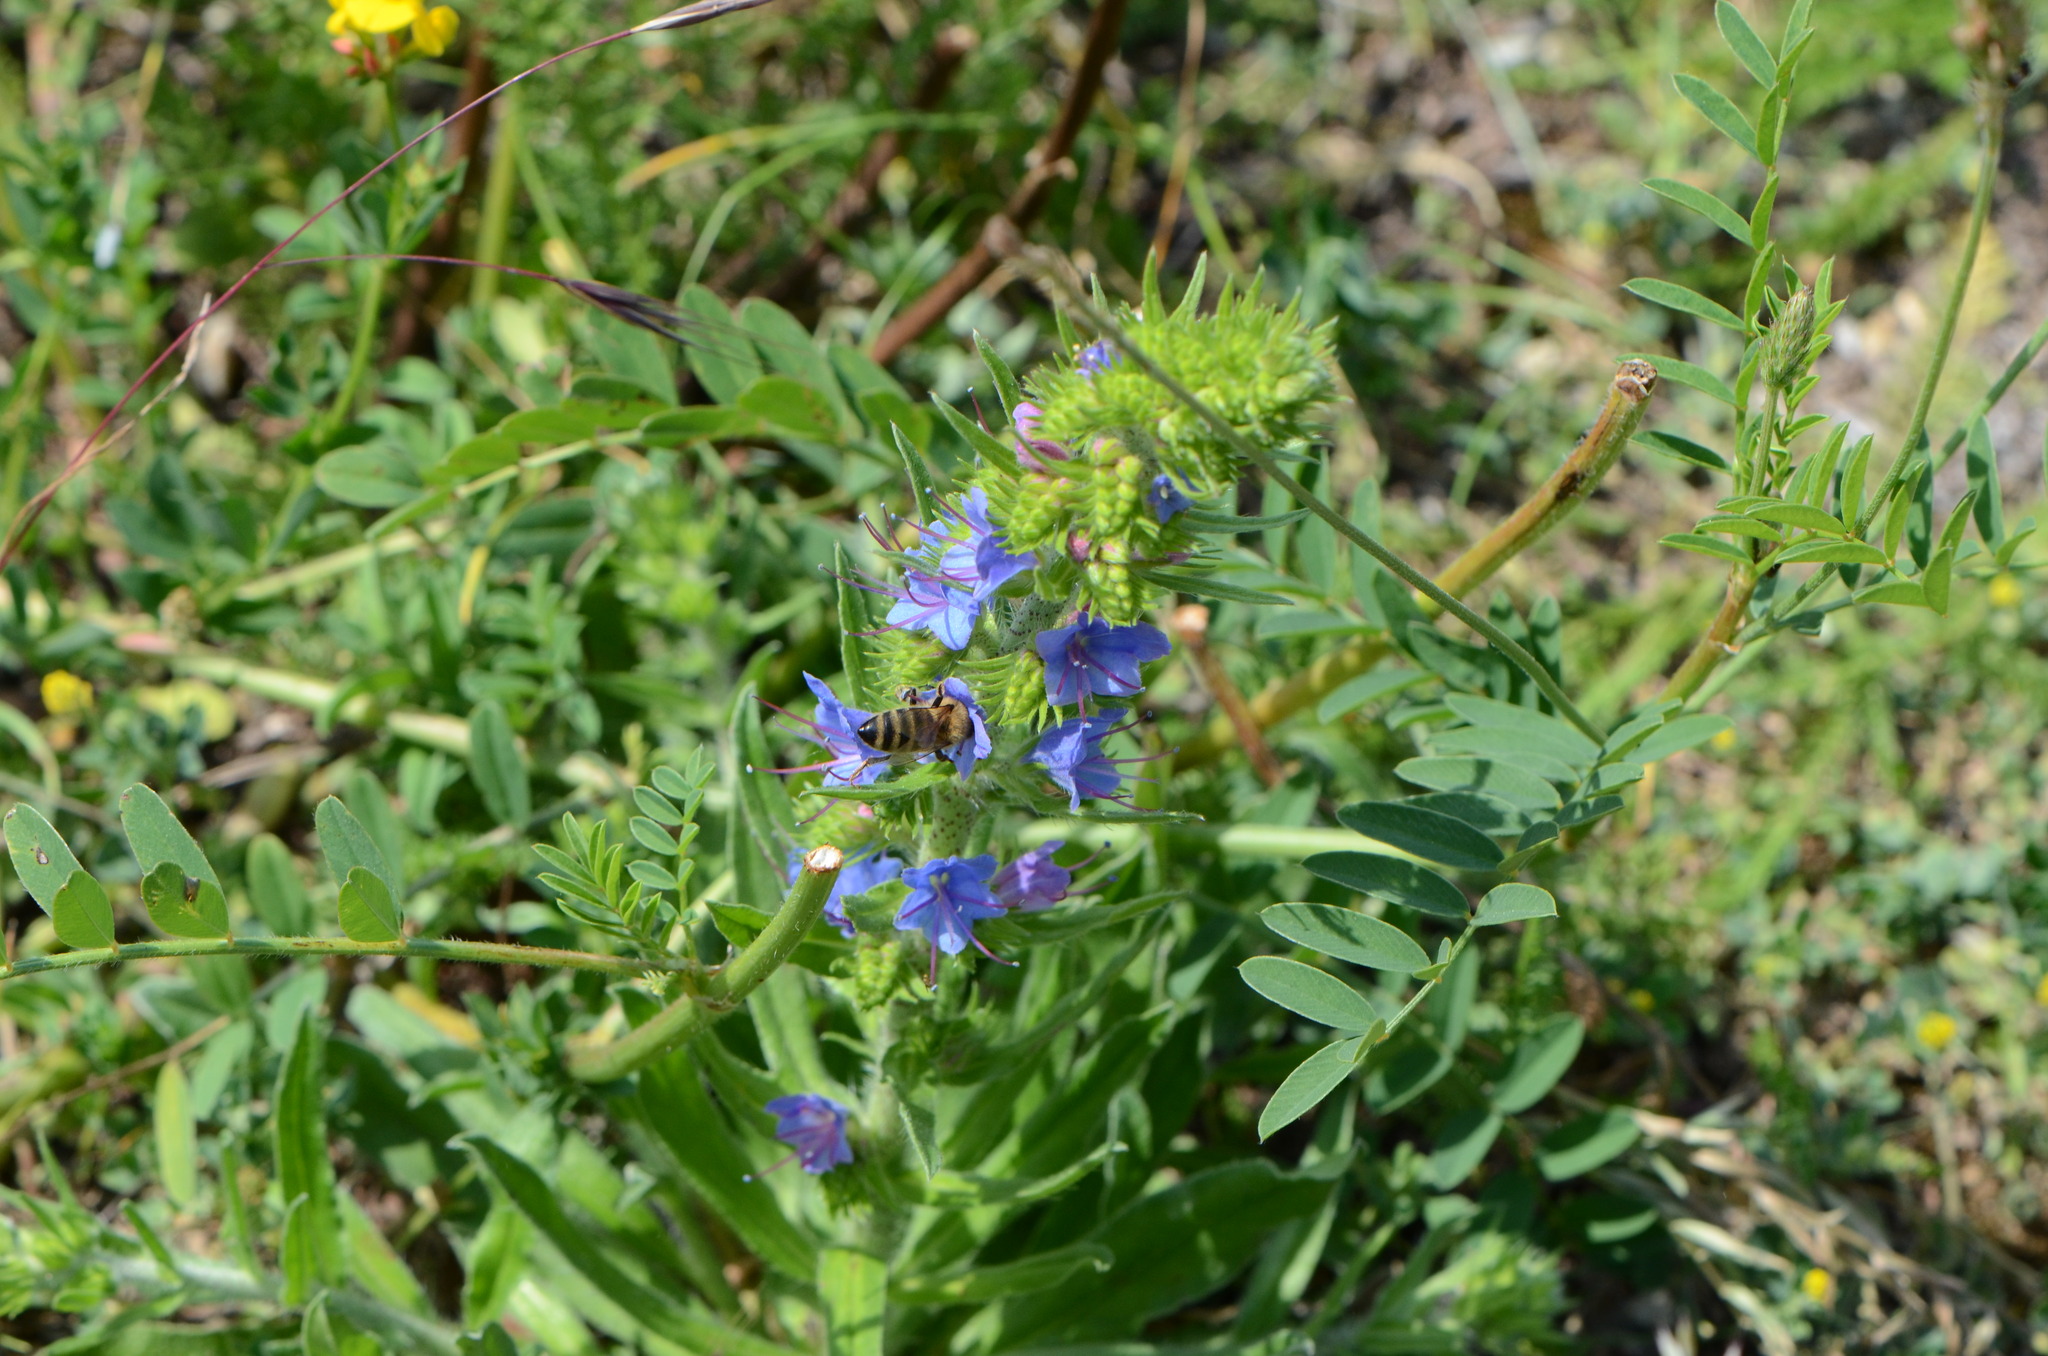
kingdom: Plantae
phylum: Tracheophyta
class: Magnoliopsida
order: Boraginales
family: Boraginaceae
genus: Echium
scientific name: Echium vulgare
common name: Common viper's bugloss
